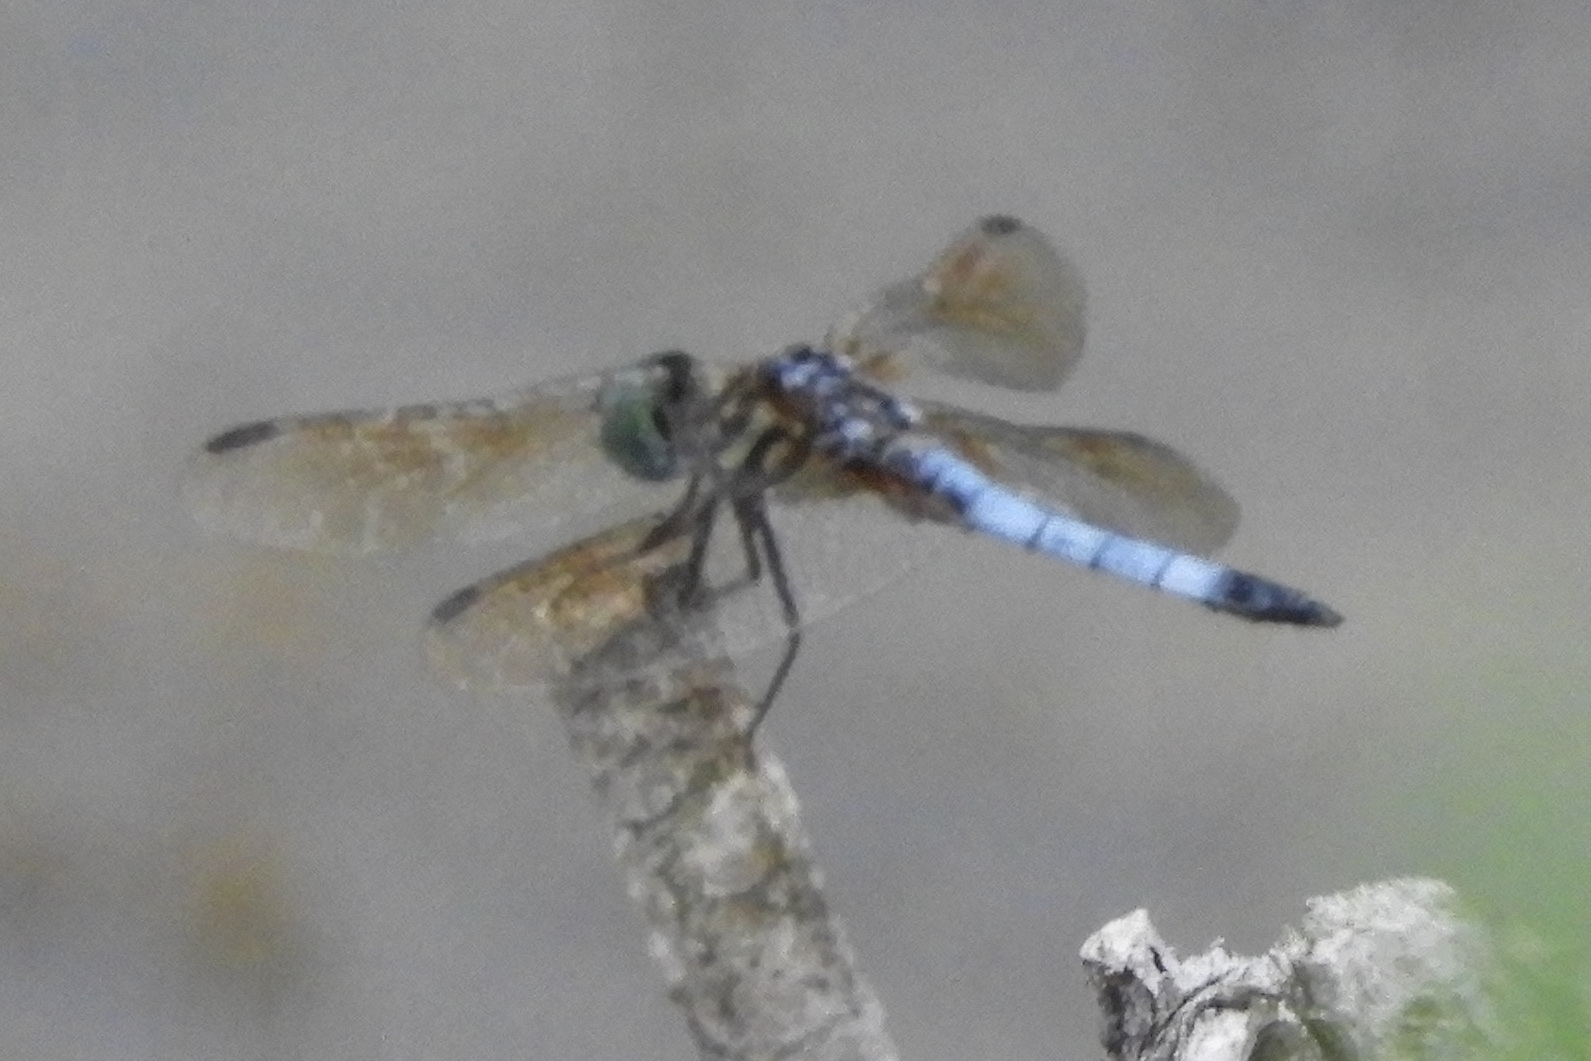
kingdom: Animalia
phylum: Arthropoda
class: Insecta
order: Odonata
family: Libellulidae
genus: Pachydiplax
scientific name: Pachydiplax longipennis
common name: Blue dasher
